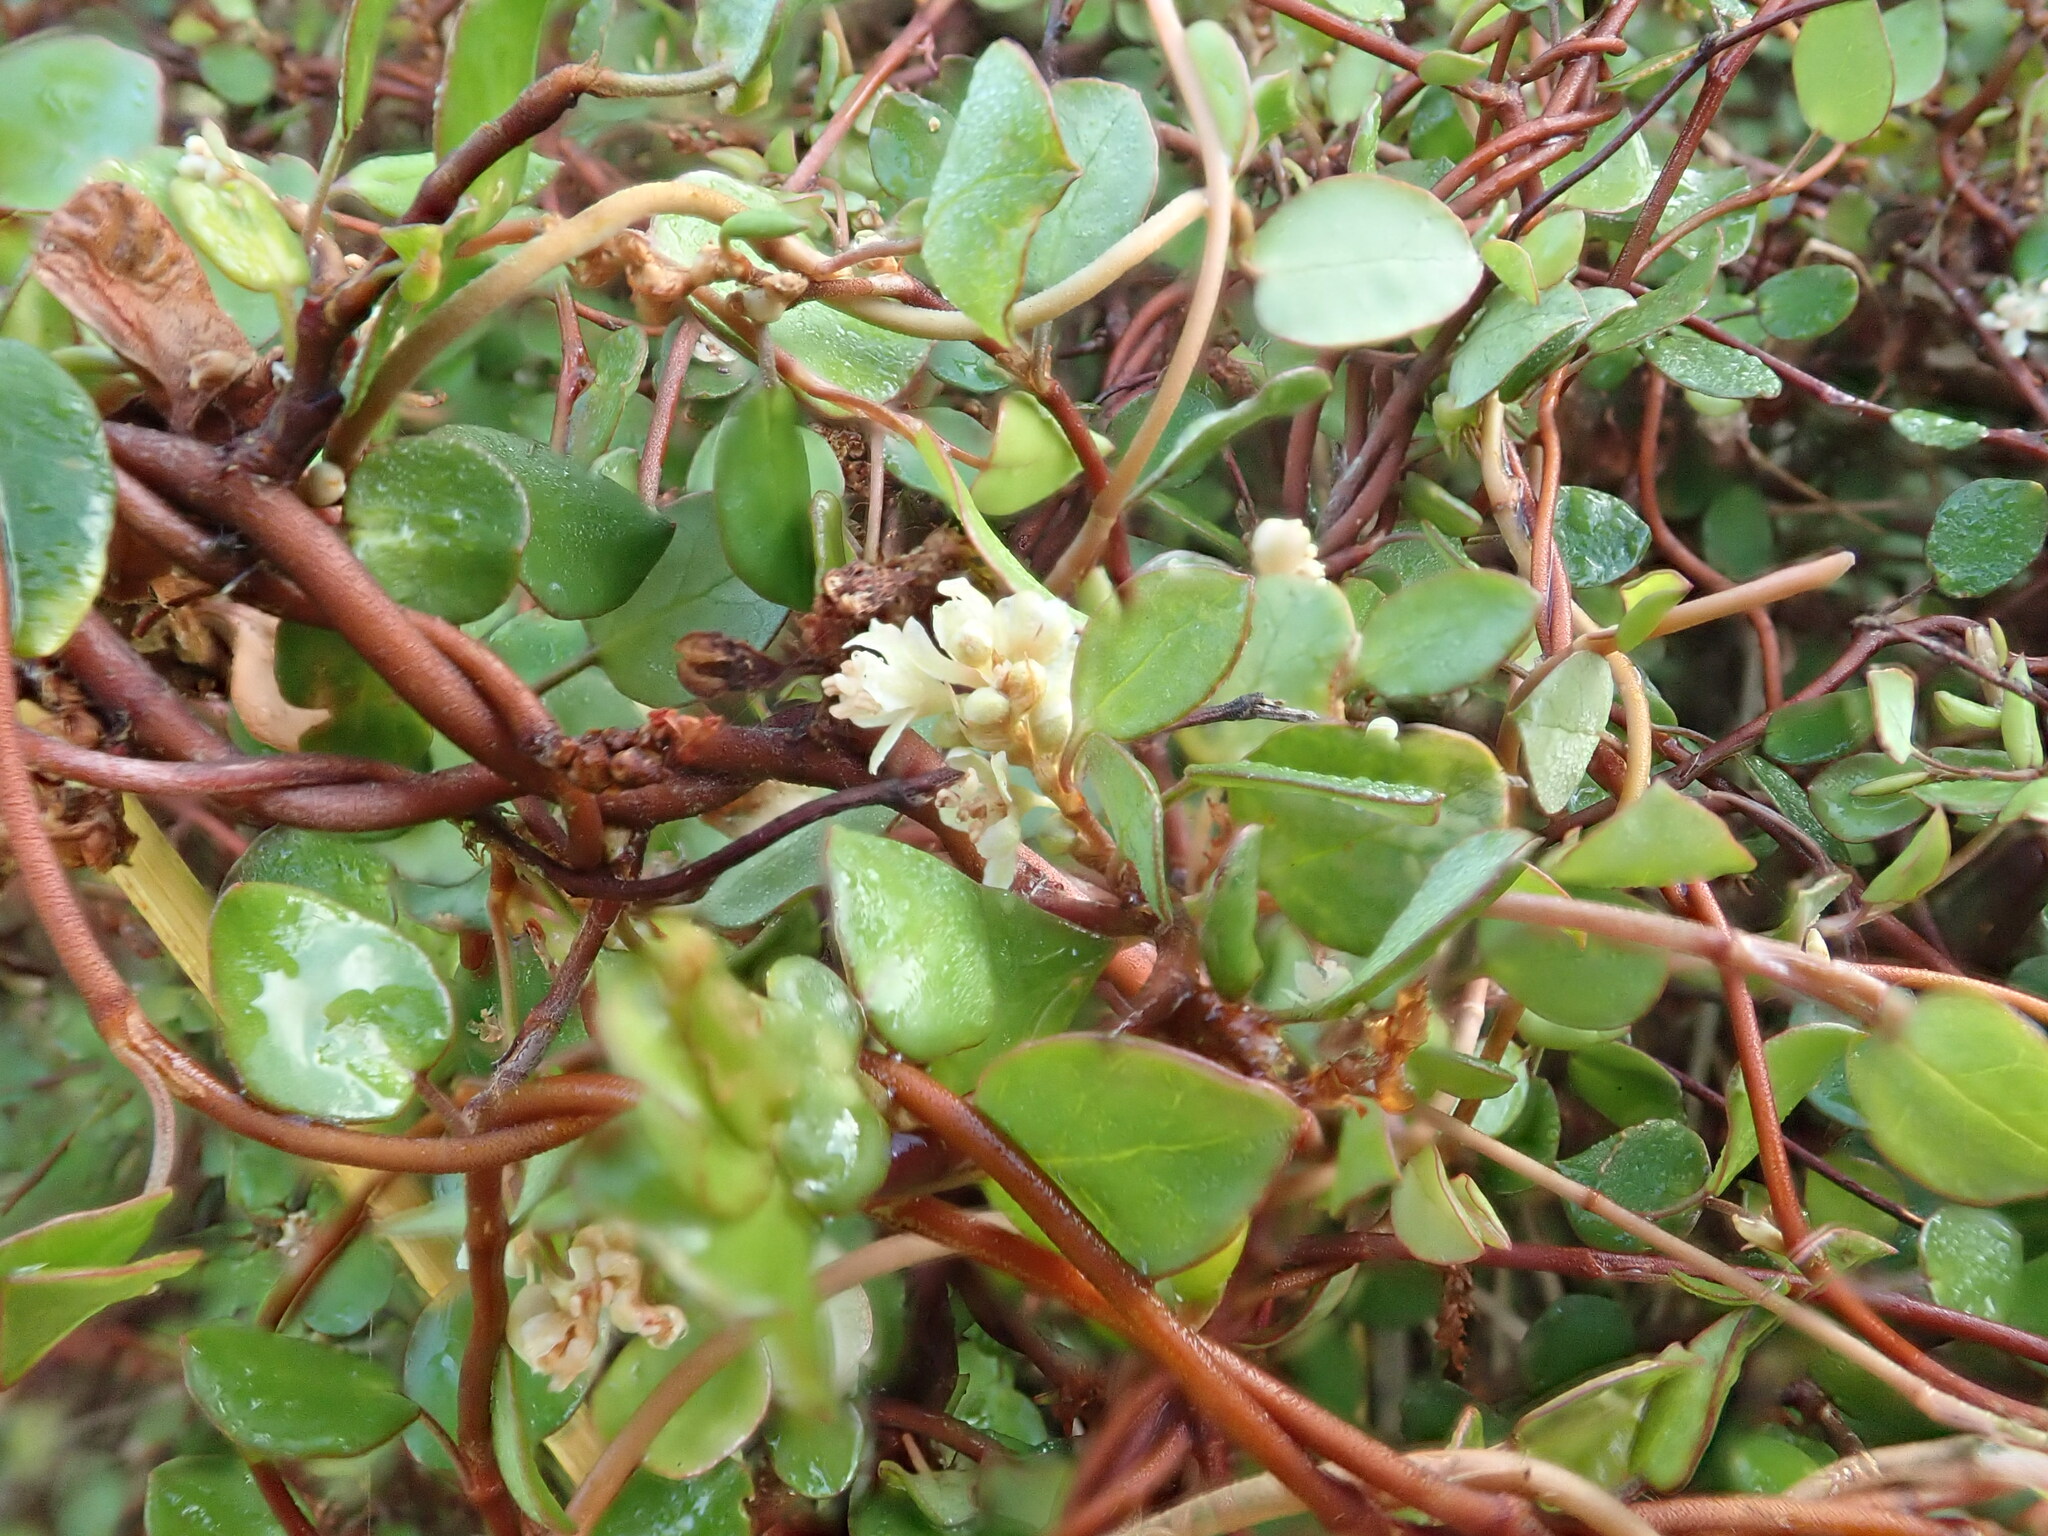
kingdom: Plantae
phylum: Tracheophyta
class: Magnoliopsida
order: Caryophyllales
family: Polygonaceae
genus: Muehlenbeckia
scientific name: Muehlenbeckia complexa
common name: Wireplant
